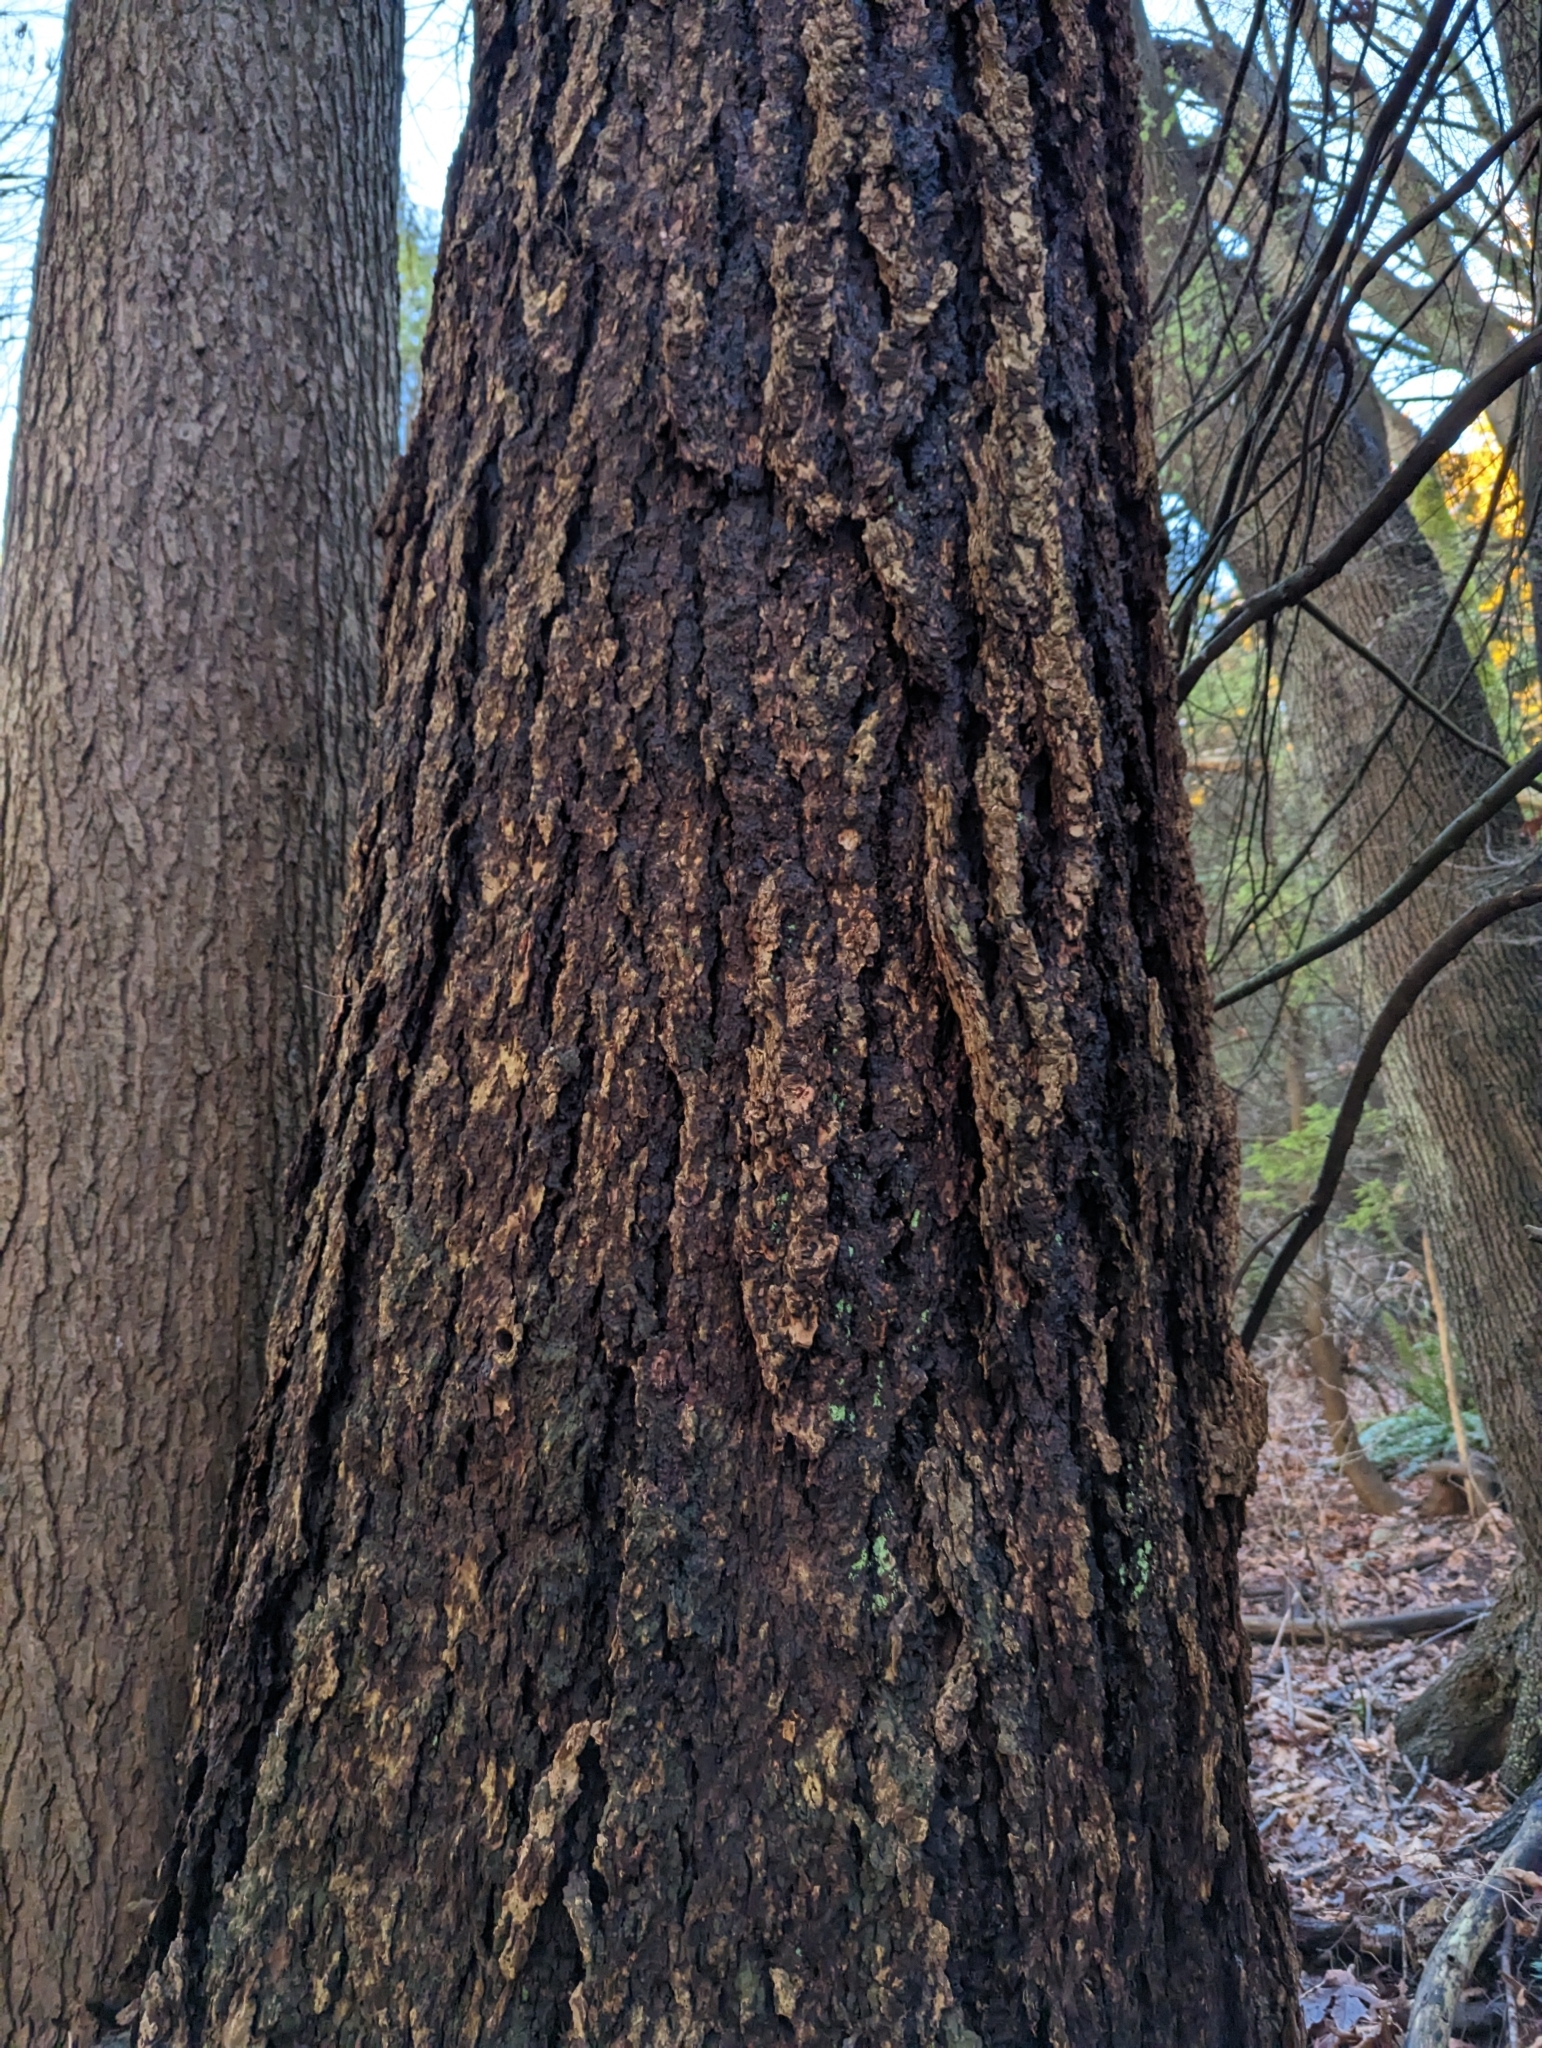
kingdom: Plantae
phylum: Tracheophyta
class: Pinopsida
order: Pinales
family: Pinaceae
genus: Pseudotsuga
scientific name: Pseudotsuga menziesii
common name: Douglas fir
